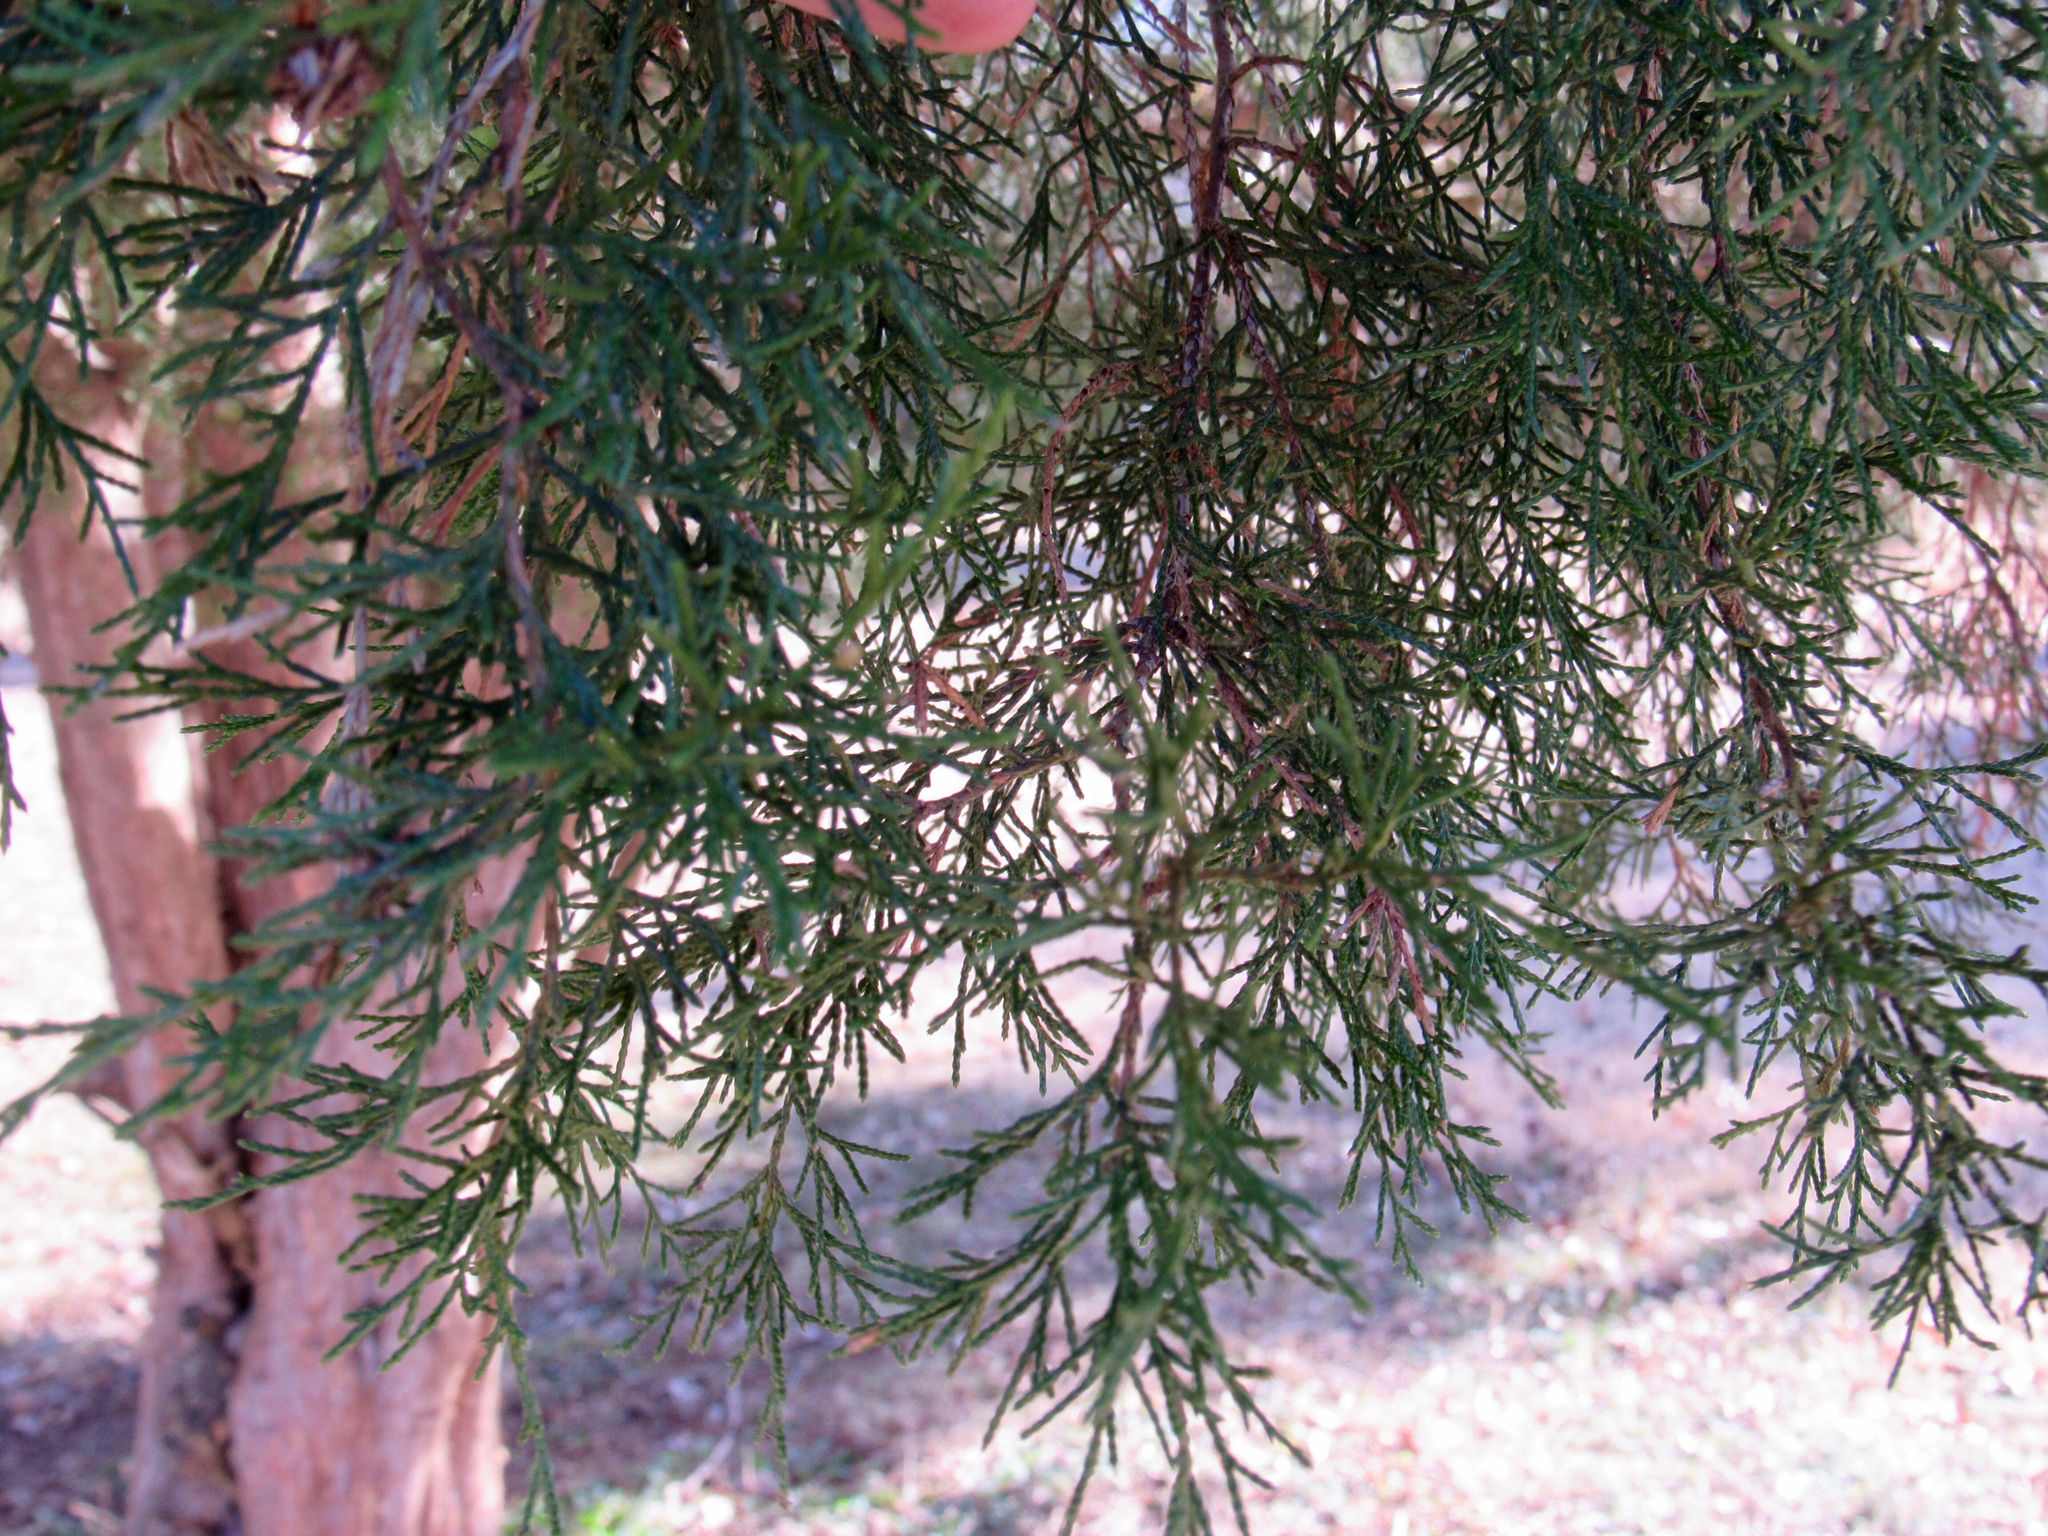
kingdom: Plantae
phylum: Tracheophyta
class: Pinopsida
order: Pinales
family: Cupressaceae
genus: Juniperus
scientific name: Juniperus virginiana
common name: Red juniper
